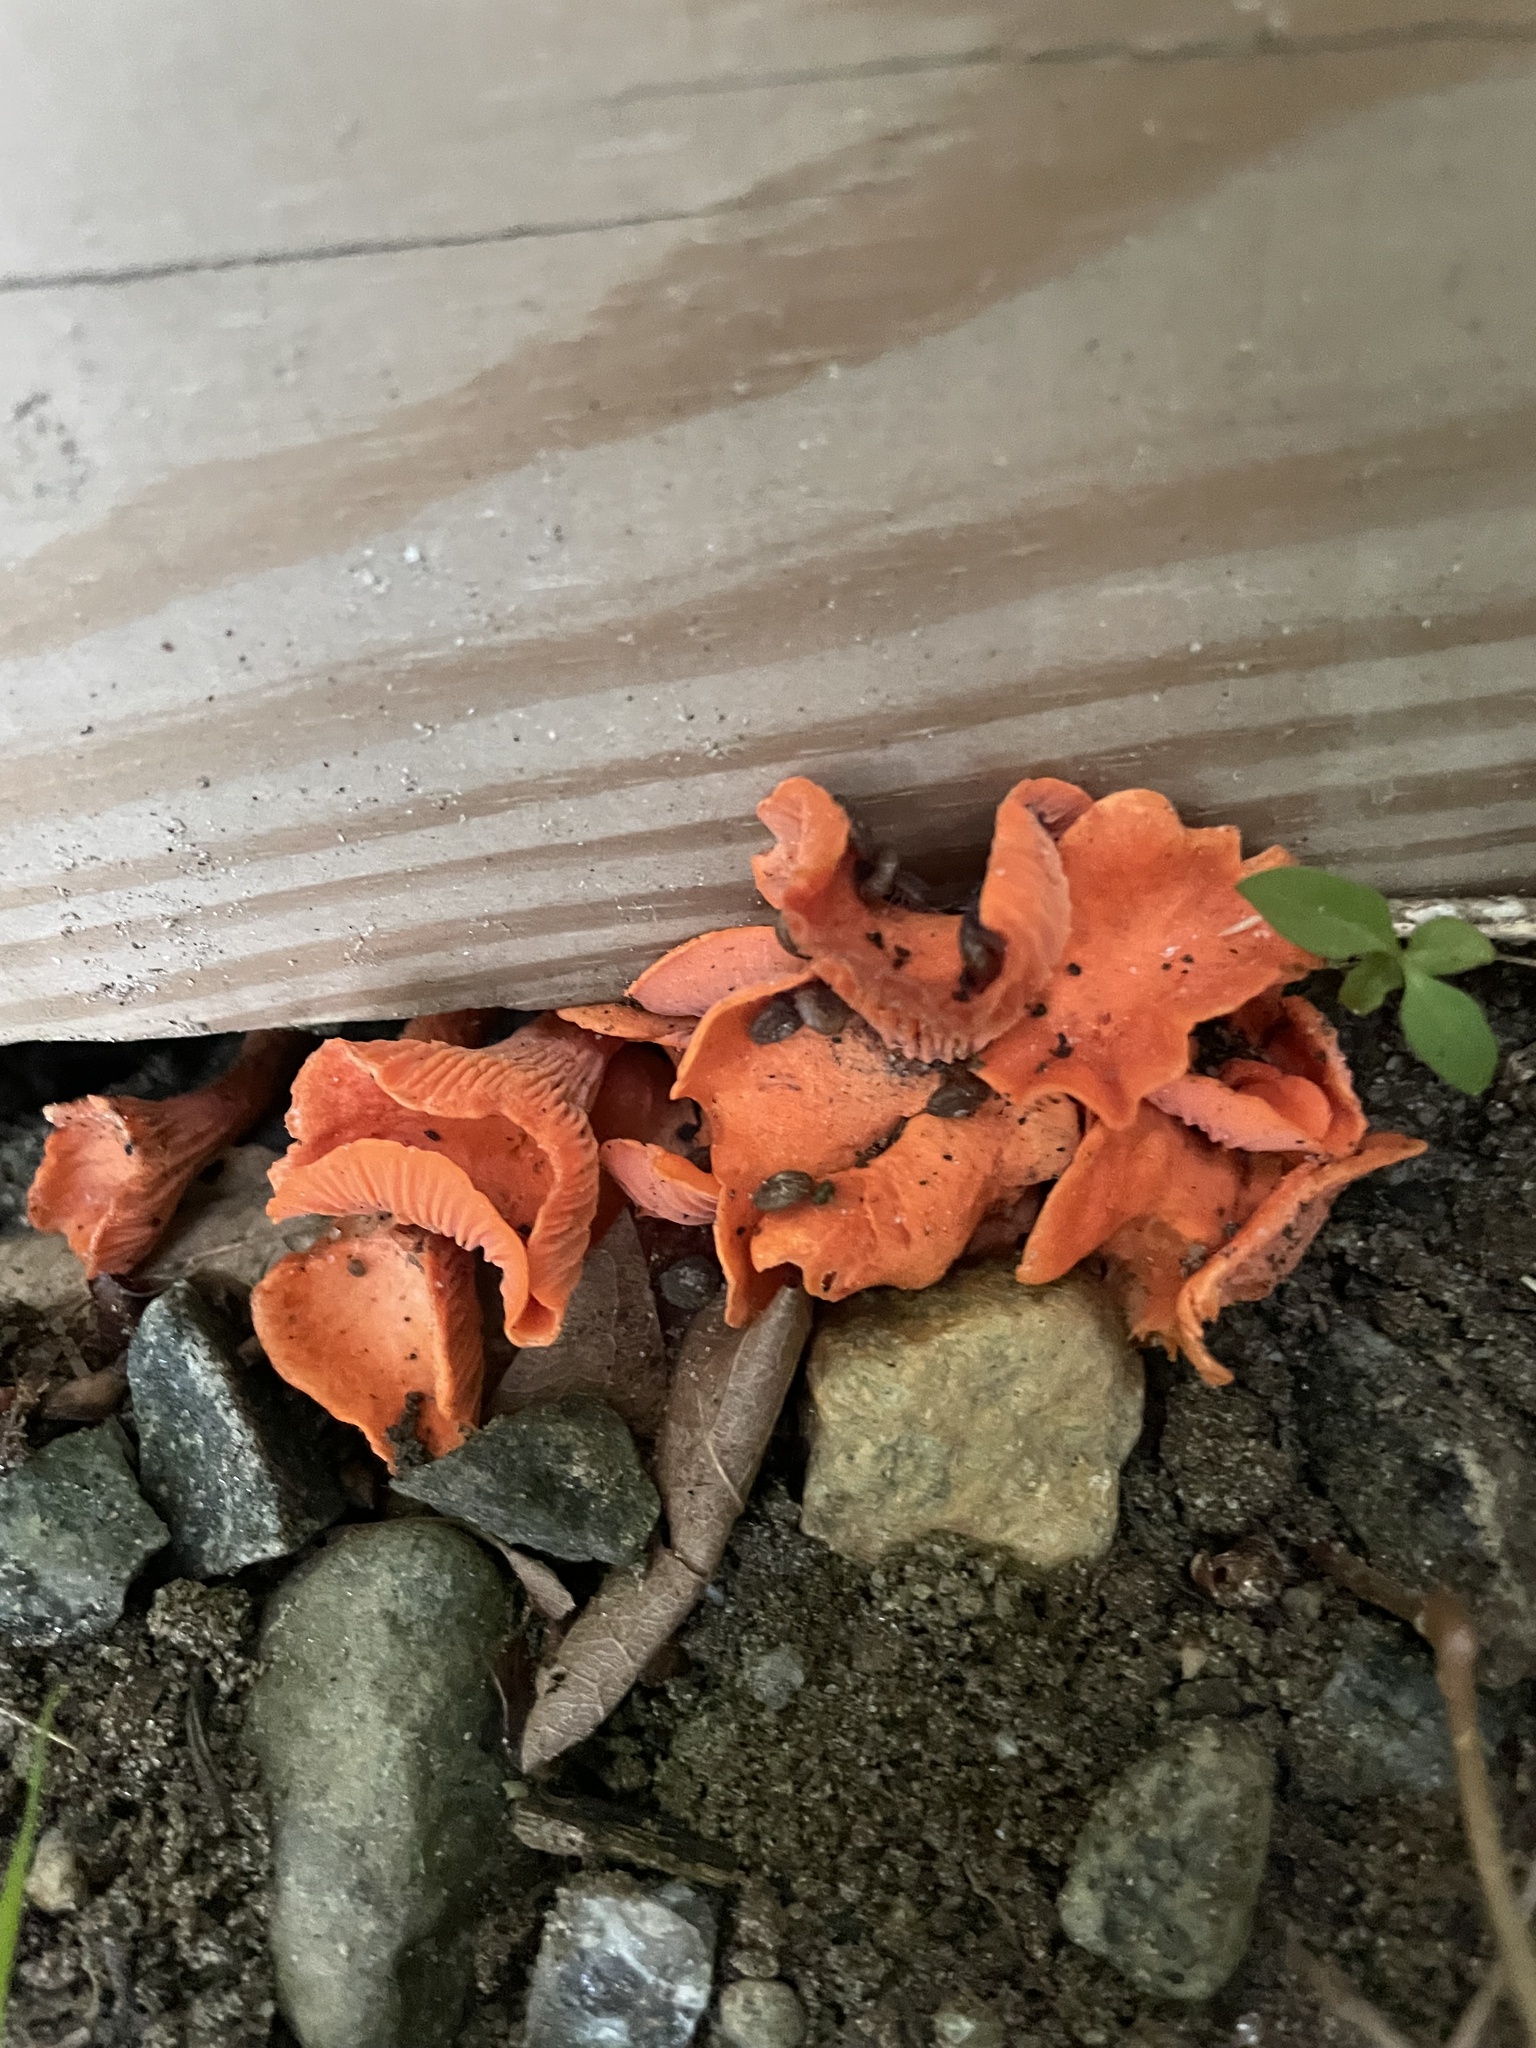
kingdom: Fungi
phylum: Basidiomycota
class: Agaricomycetes
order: Cantharellales
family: Hydnaceae
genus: Cantharellus
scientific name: Cantharellus cinnabarinus
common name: Cinnabar chanterelle
